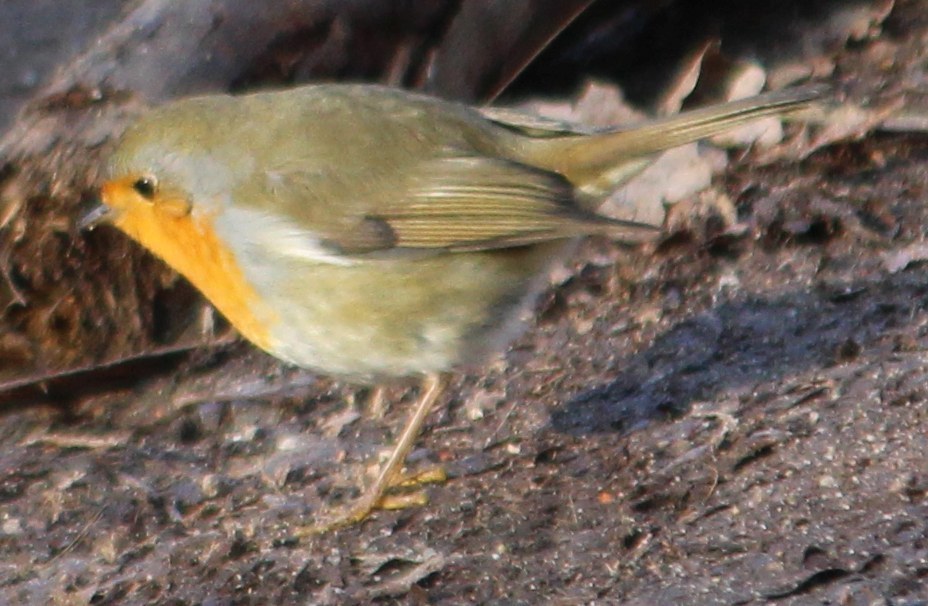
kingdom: Animalia
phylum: Chordata
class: Aves
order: Passeriformes
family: Muscicapidae
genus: Erithacus
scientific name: Erithacus rubecula
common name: European robin
